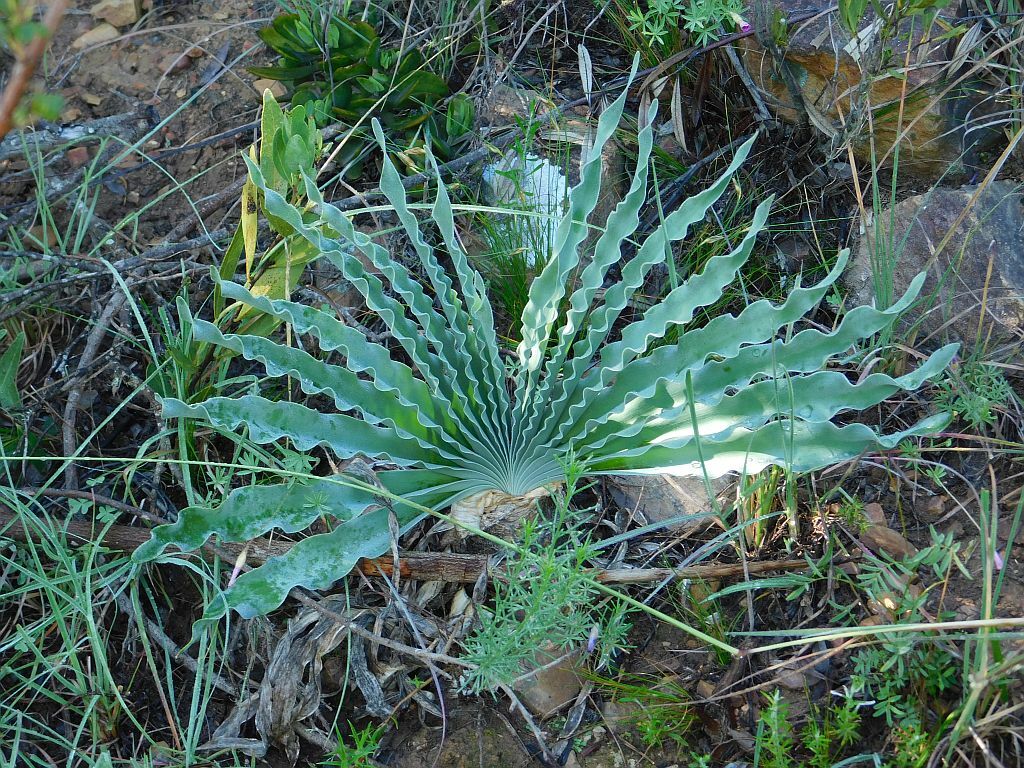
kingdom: Plantae
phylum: Tracheophyta
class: Liliopsida
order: Asparagales
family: Amaryllidaceae
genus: Boophone
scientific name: Boophone disticha
